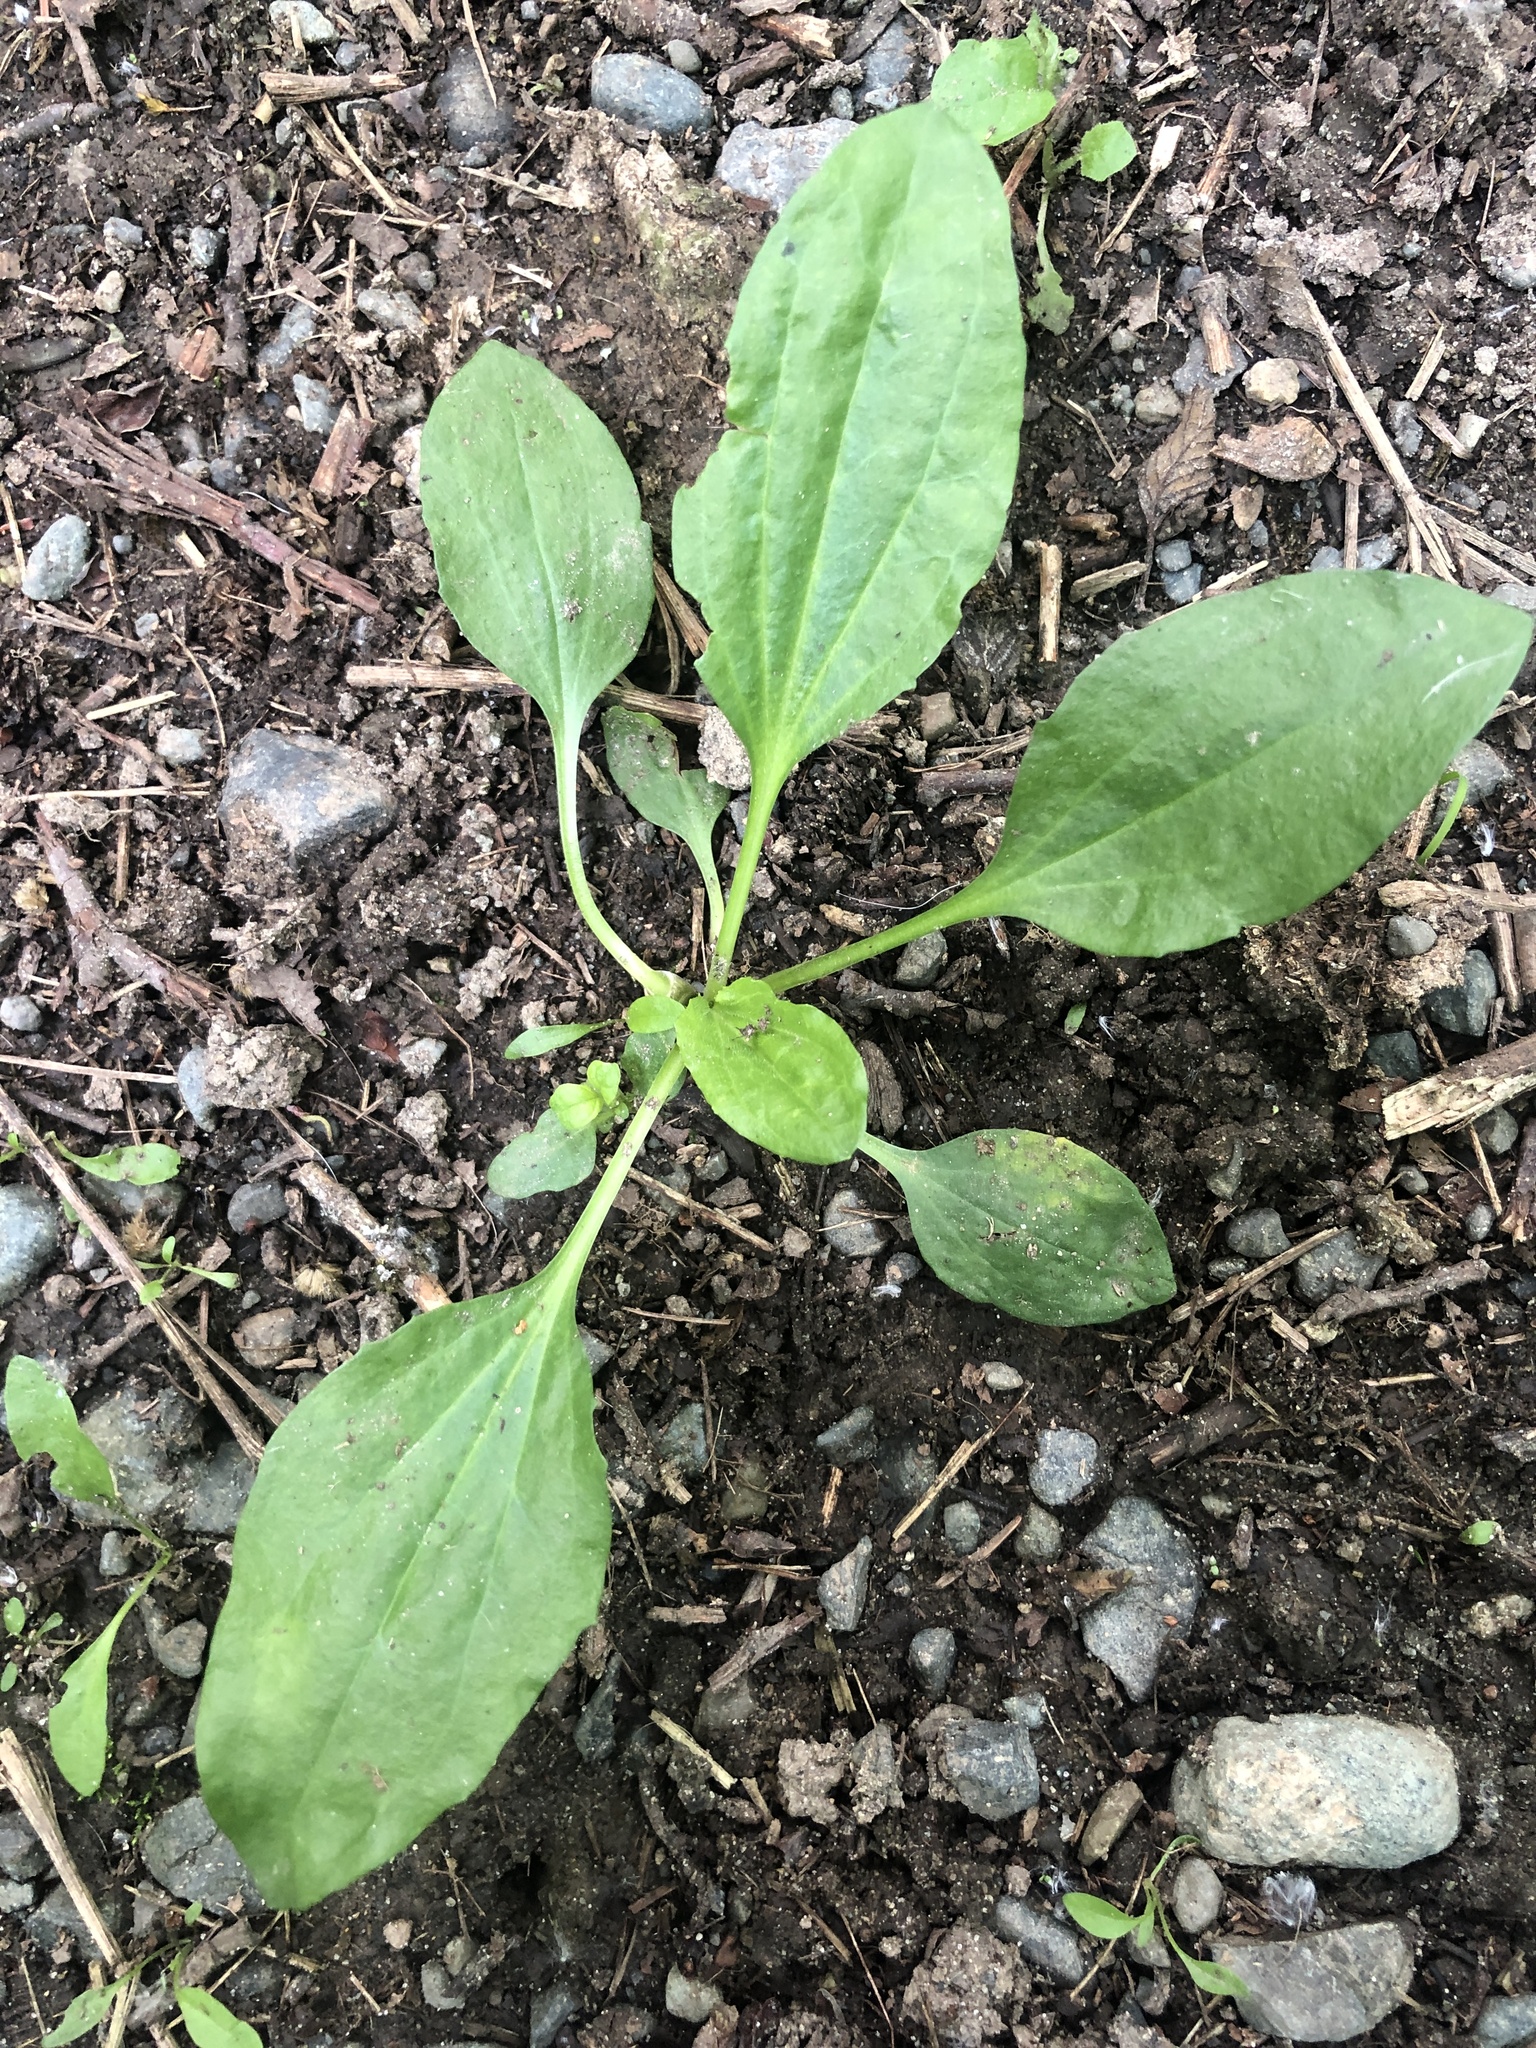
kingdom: Plantae
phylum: Tracheophyta
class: Magnoliopsida
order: Lamiales
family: Plantaginaceae
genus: Plantago
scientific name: Plantago major
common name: Common plantain
